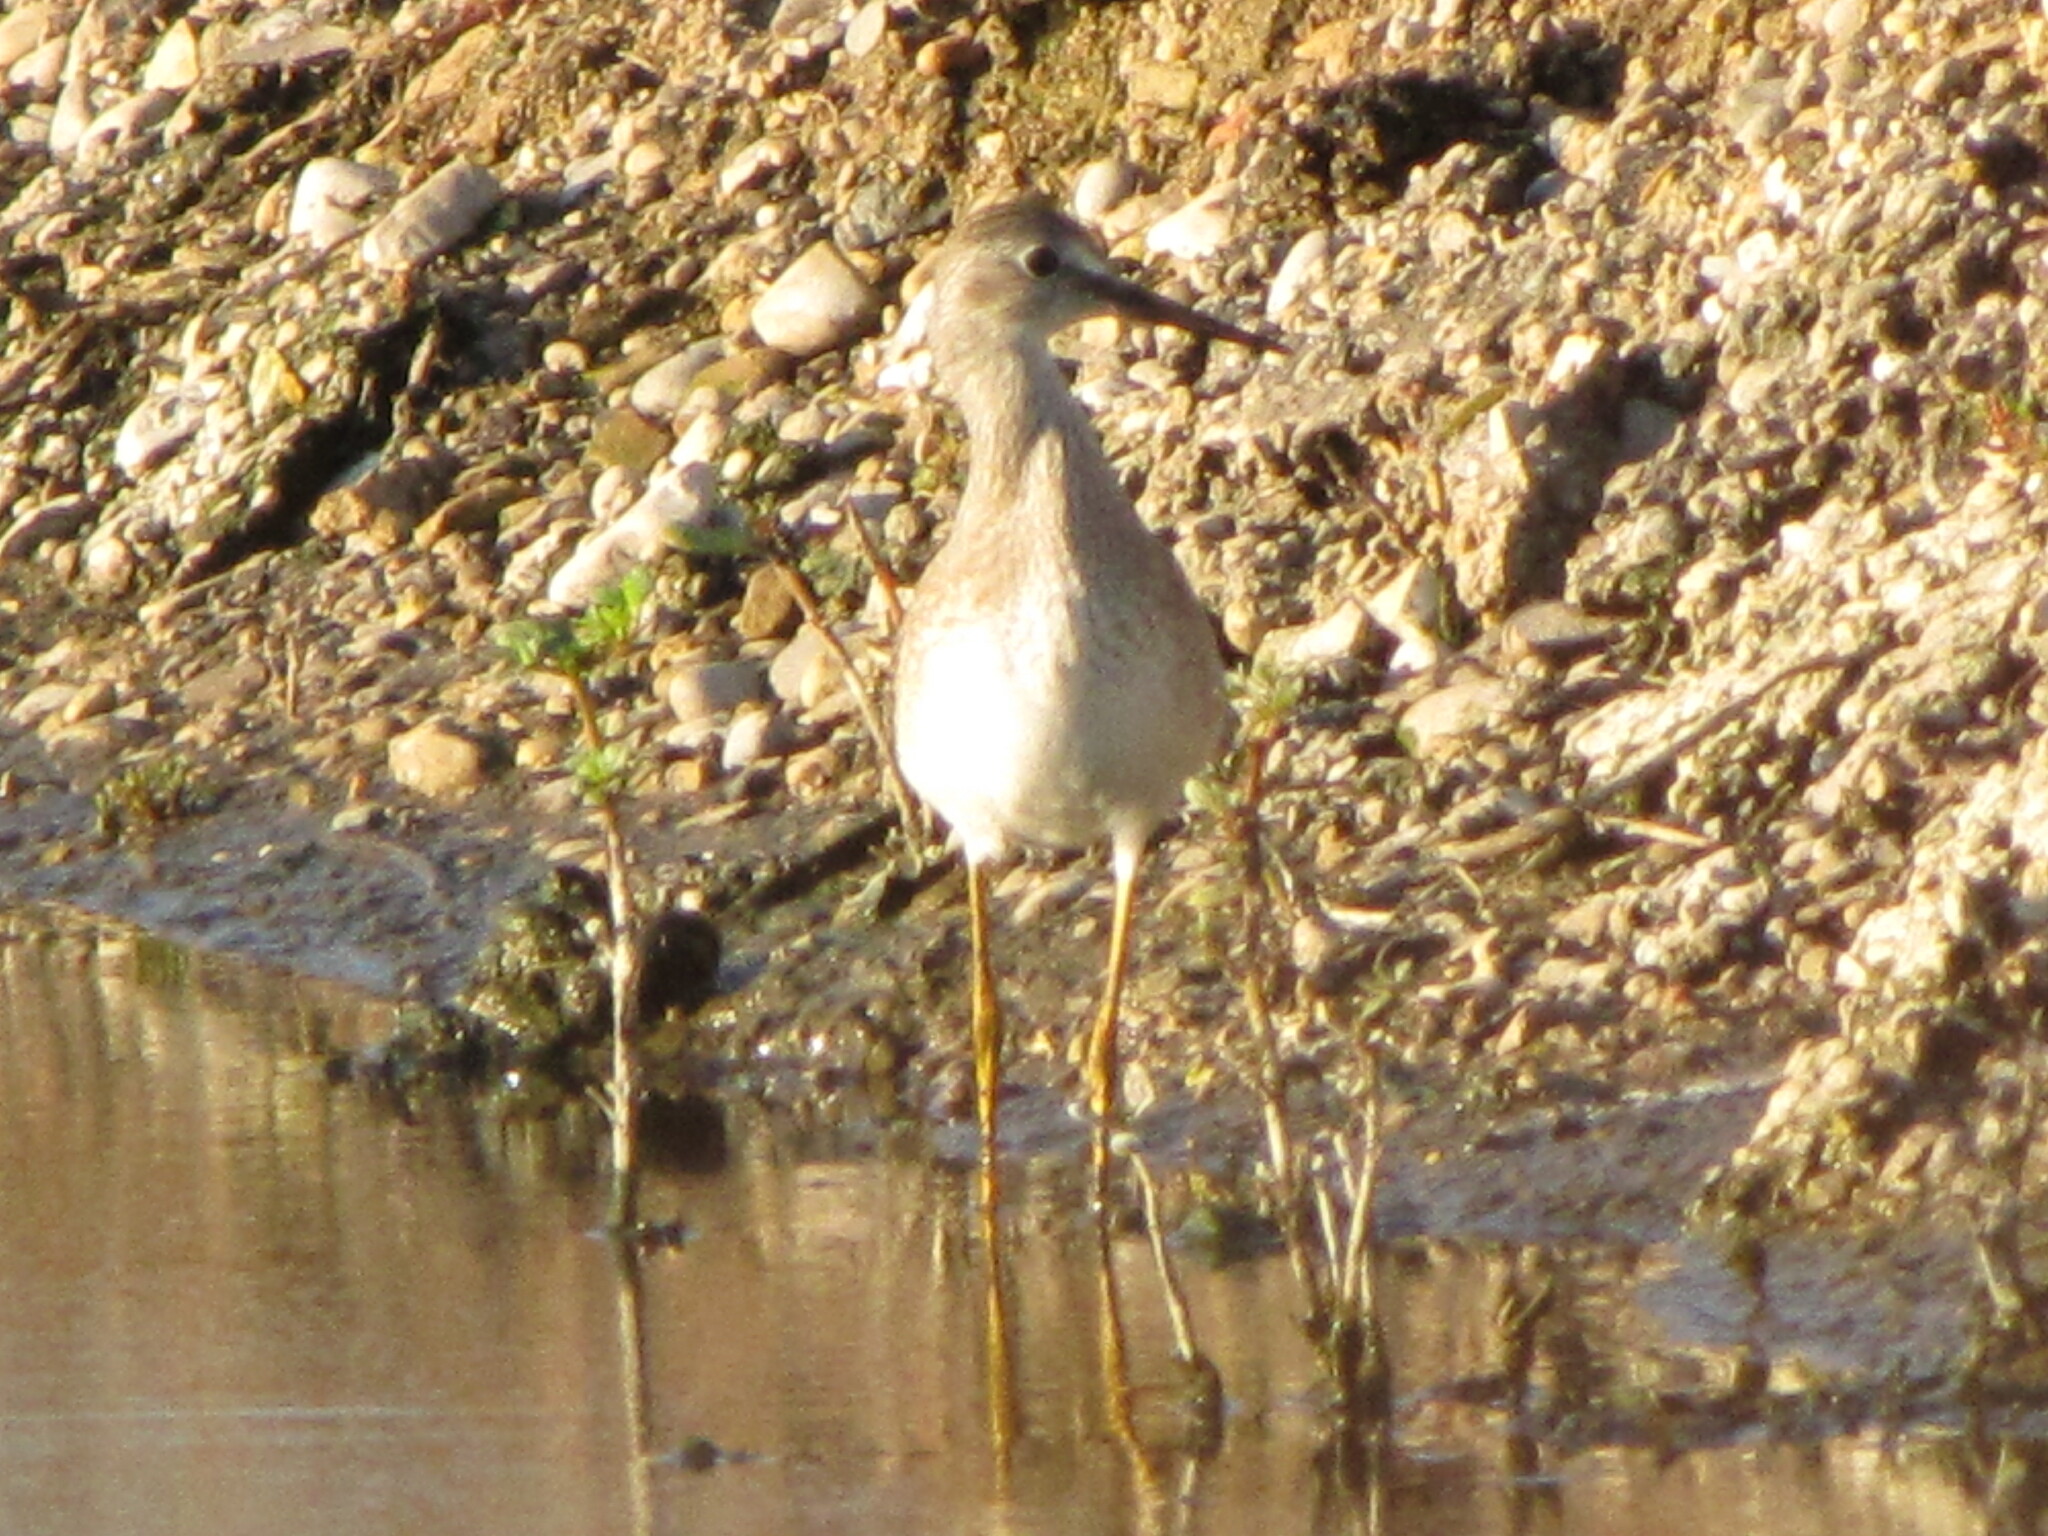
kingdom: Animalia
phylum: Chordata
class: Aves
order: Charadriiformes
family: Scolopacidae
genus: Tringa
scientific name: Tringa melanoleuca
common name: Greater yellowlegs
